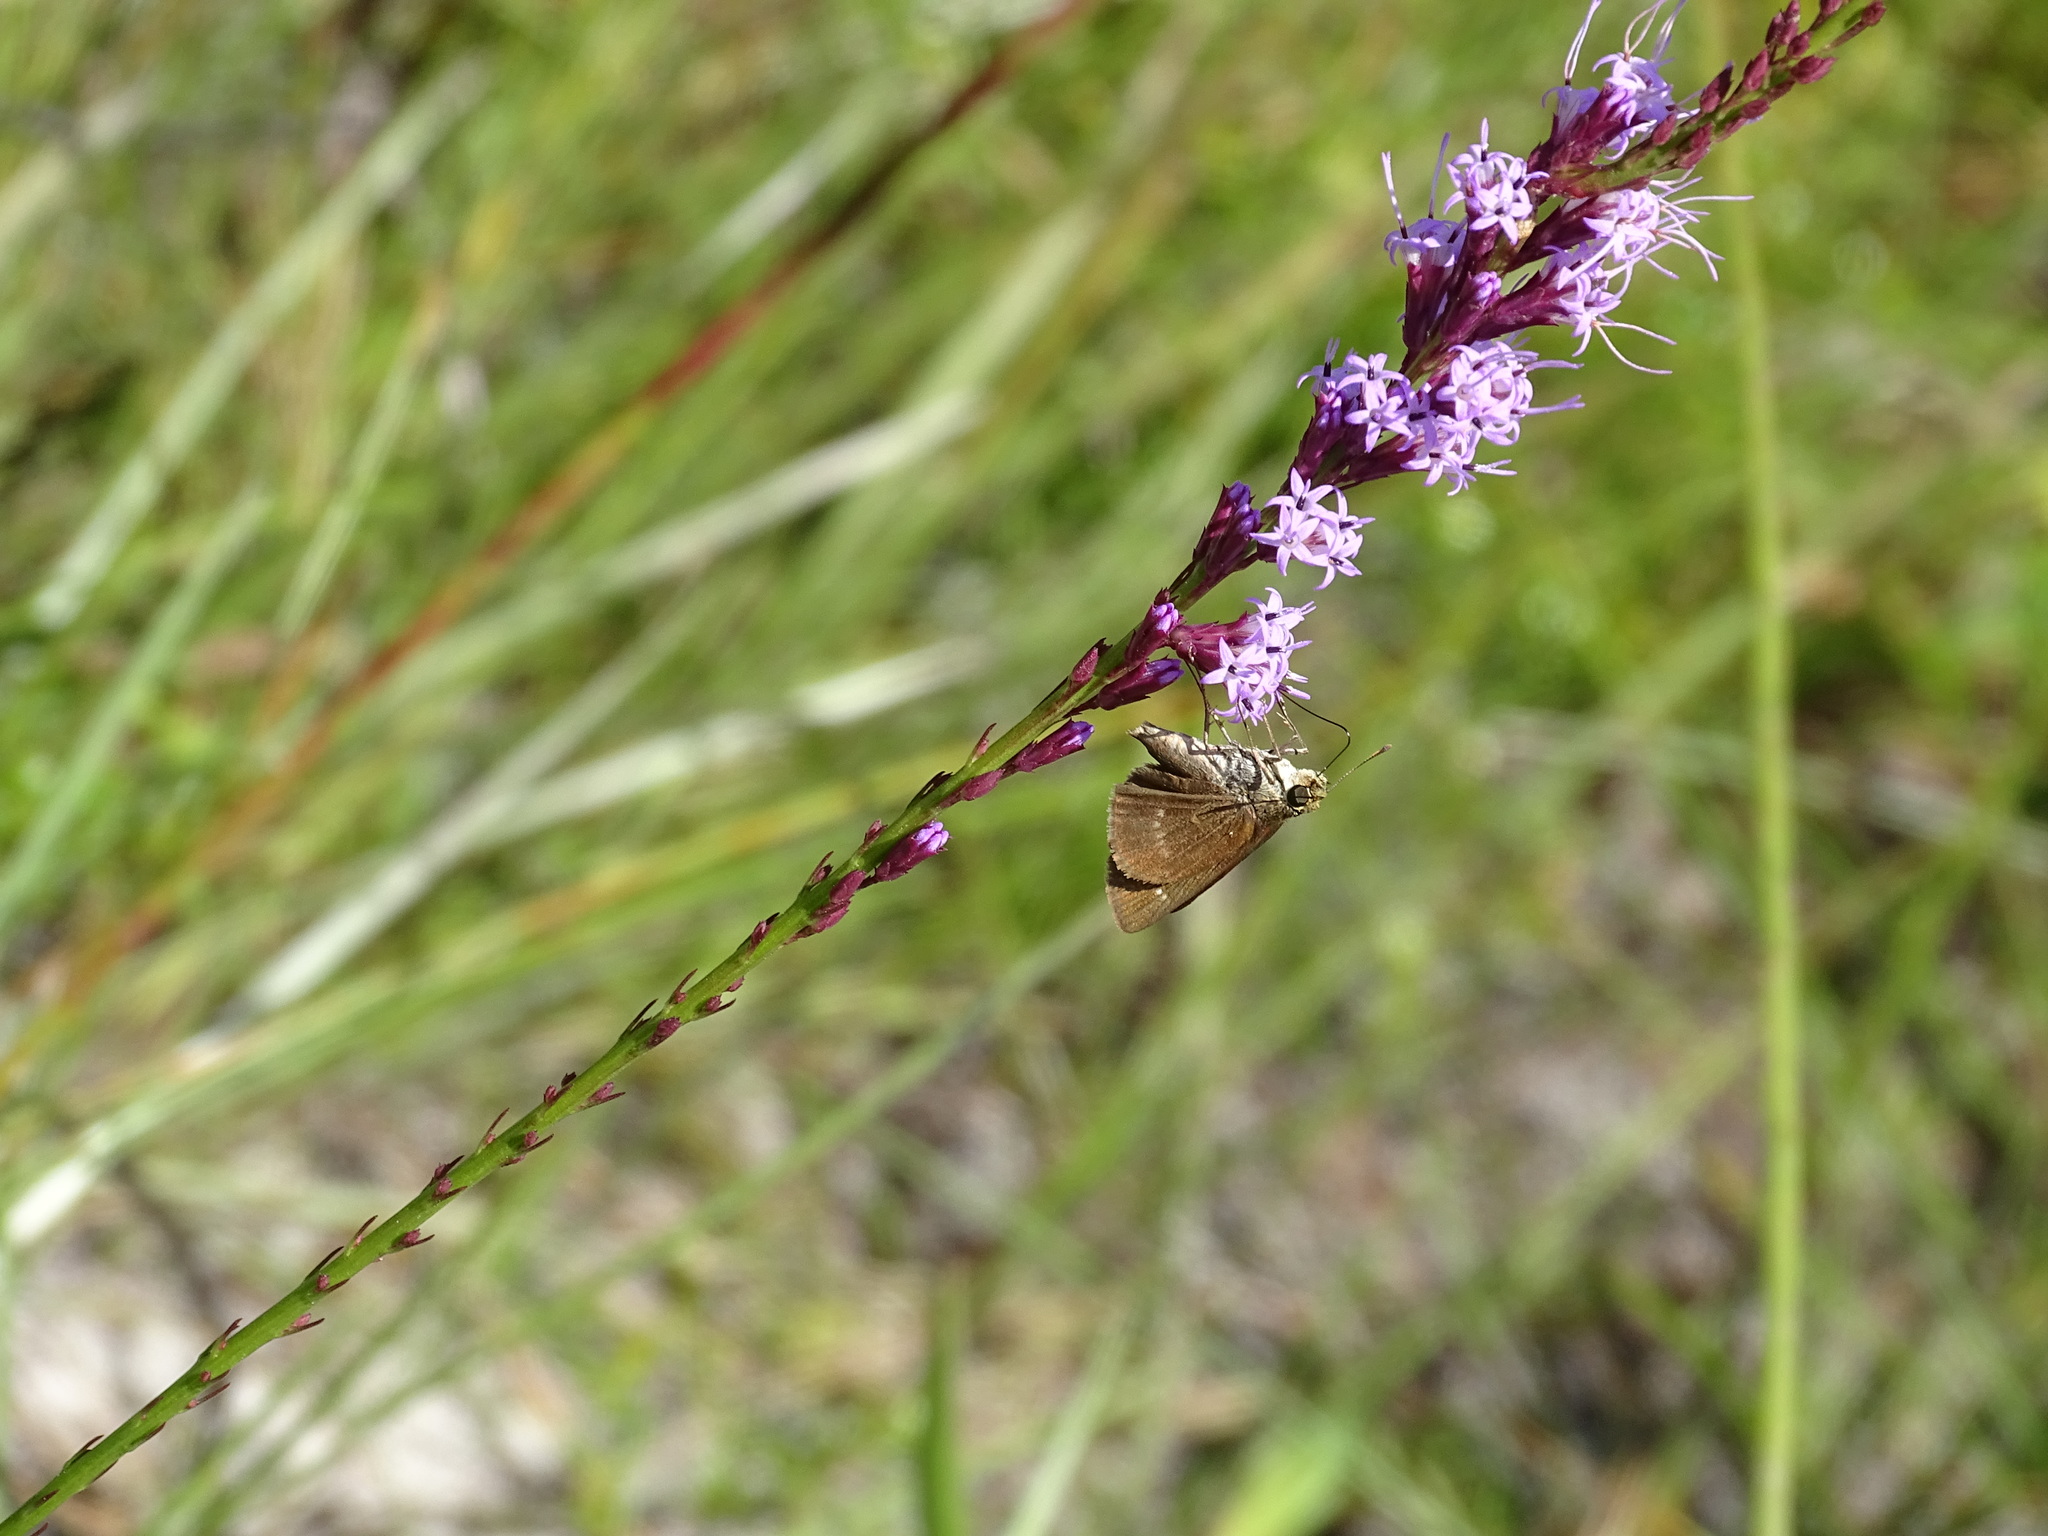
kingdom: Animalia
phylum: Arthropoda
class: Insecta
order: Lepidoptera
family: Hesperiidae
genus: Euphyes
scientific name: Euphyes vestris
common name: Dun skipper
